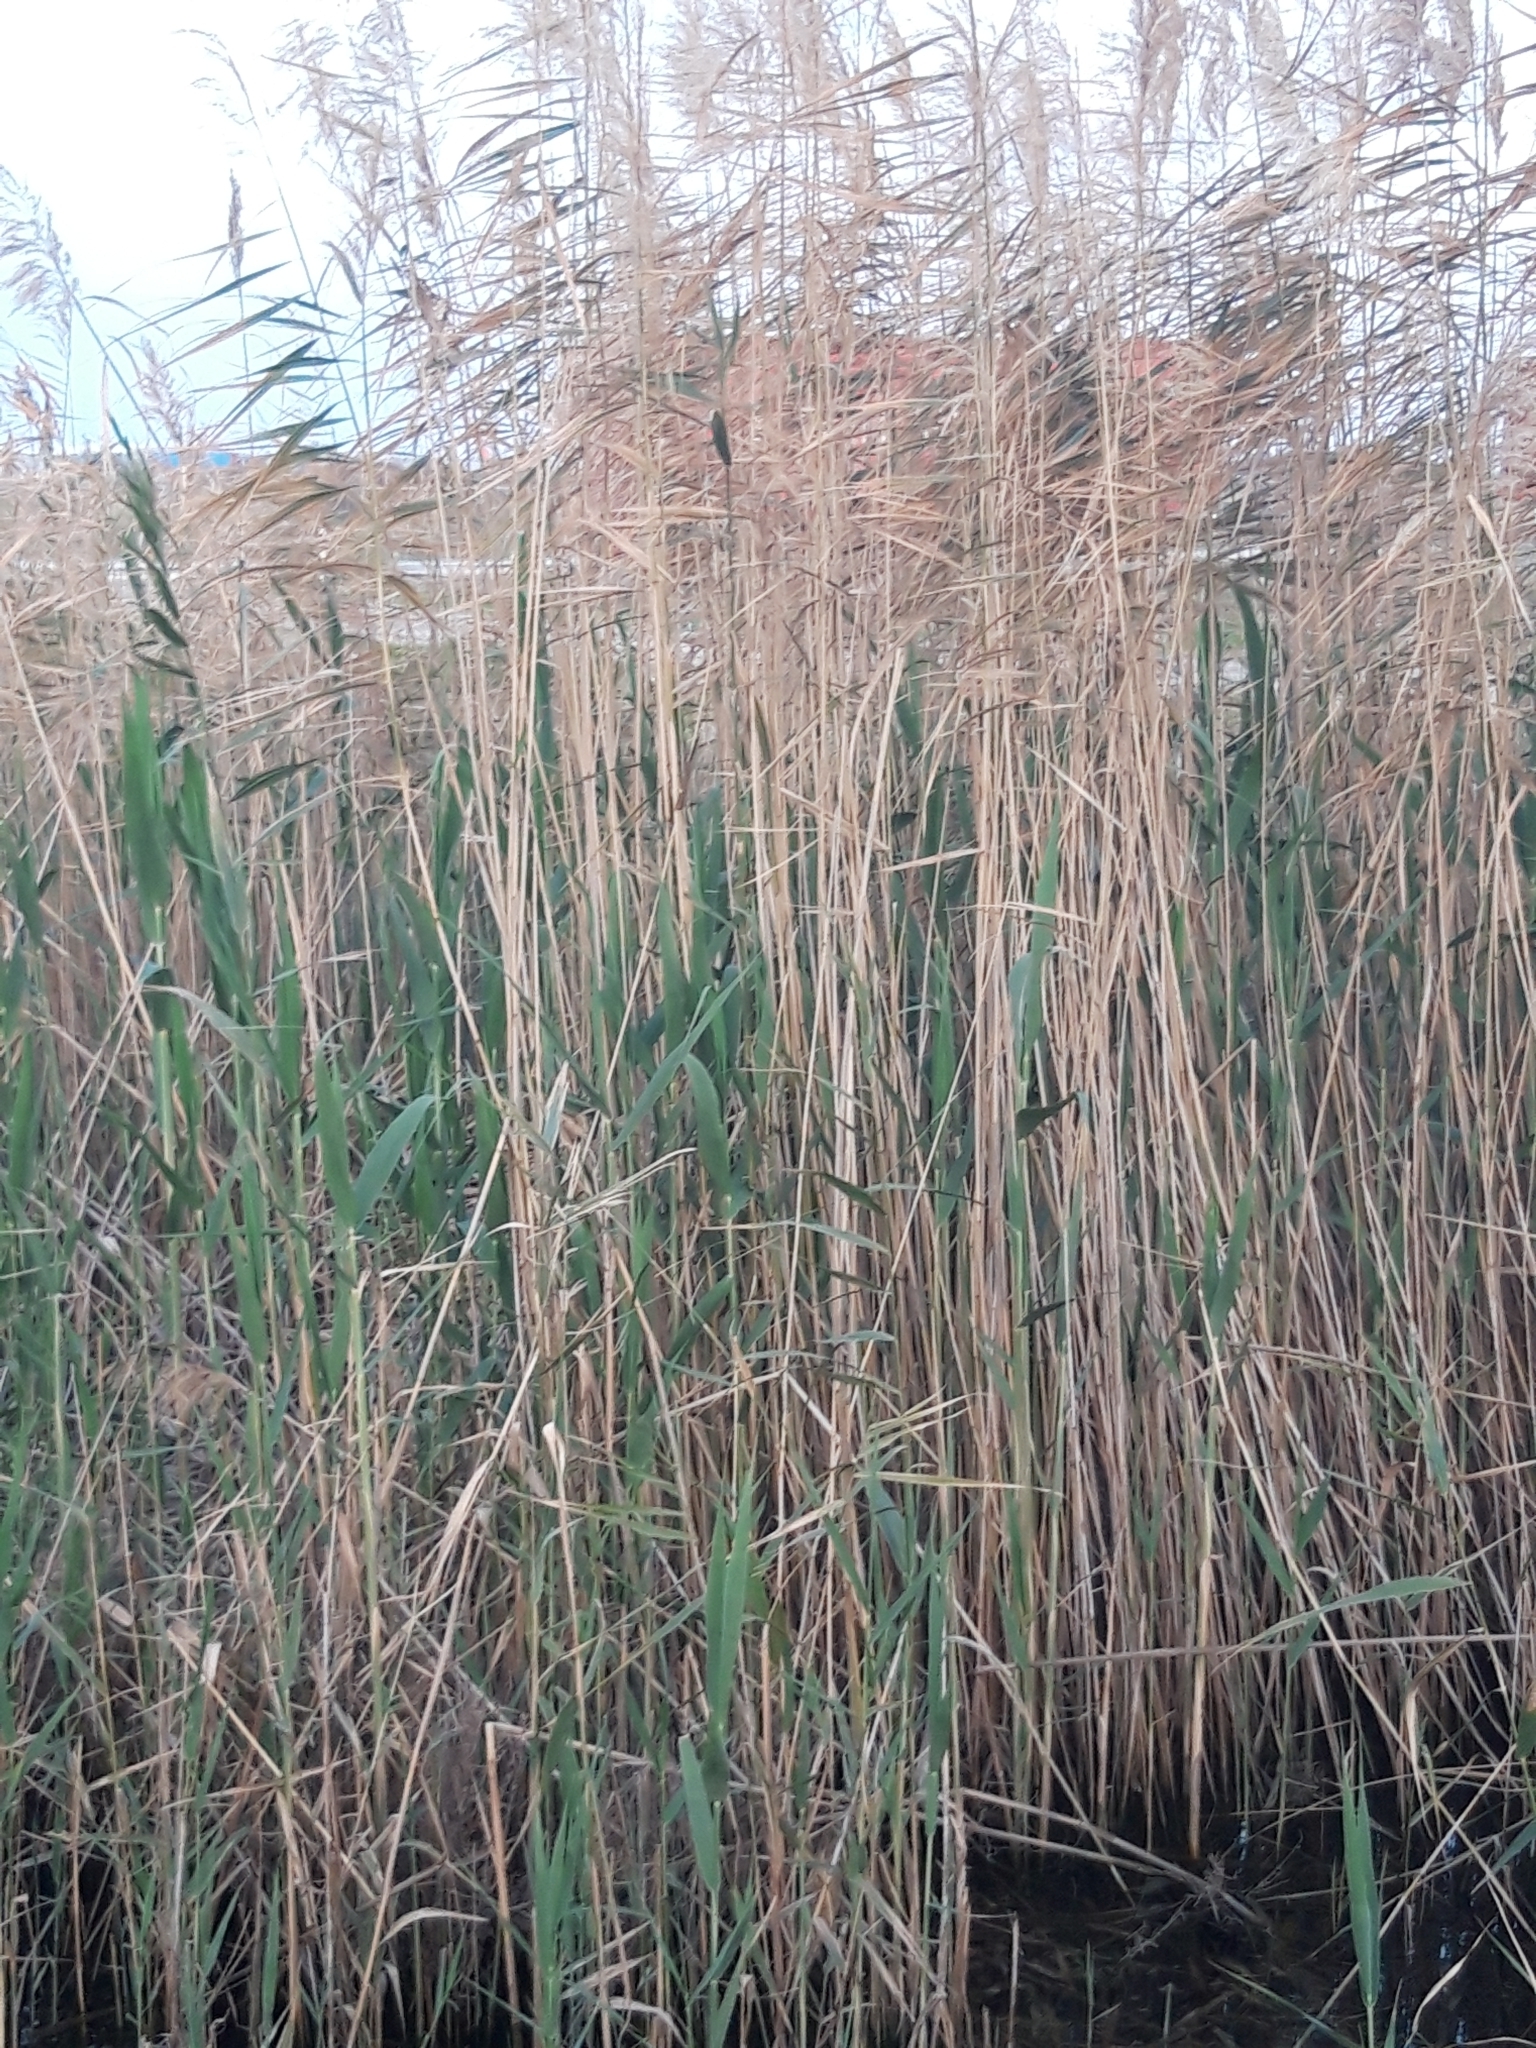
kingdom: Plantae
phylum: Tracheophyta
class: Liliopsida
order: Poales
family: Poaceae
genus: Phragmites
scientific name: Phragmites australis
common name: Common reed
